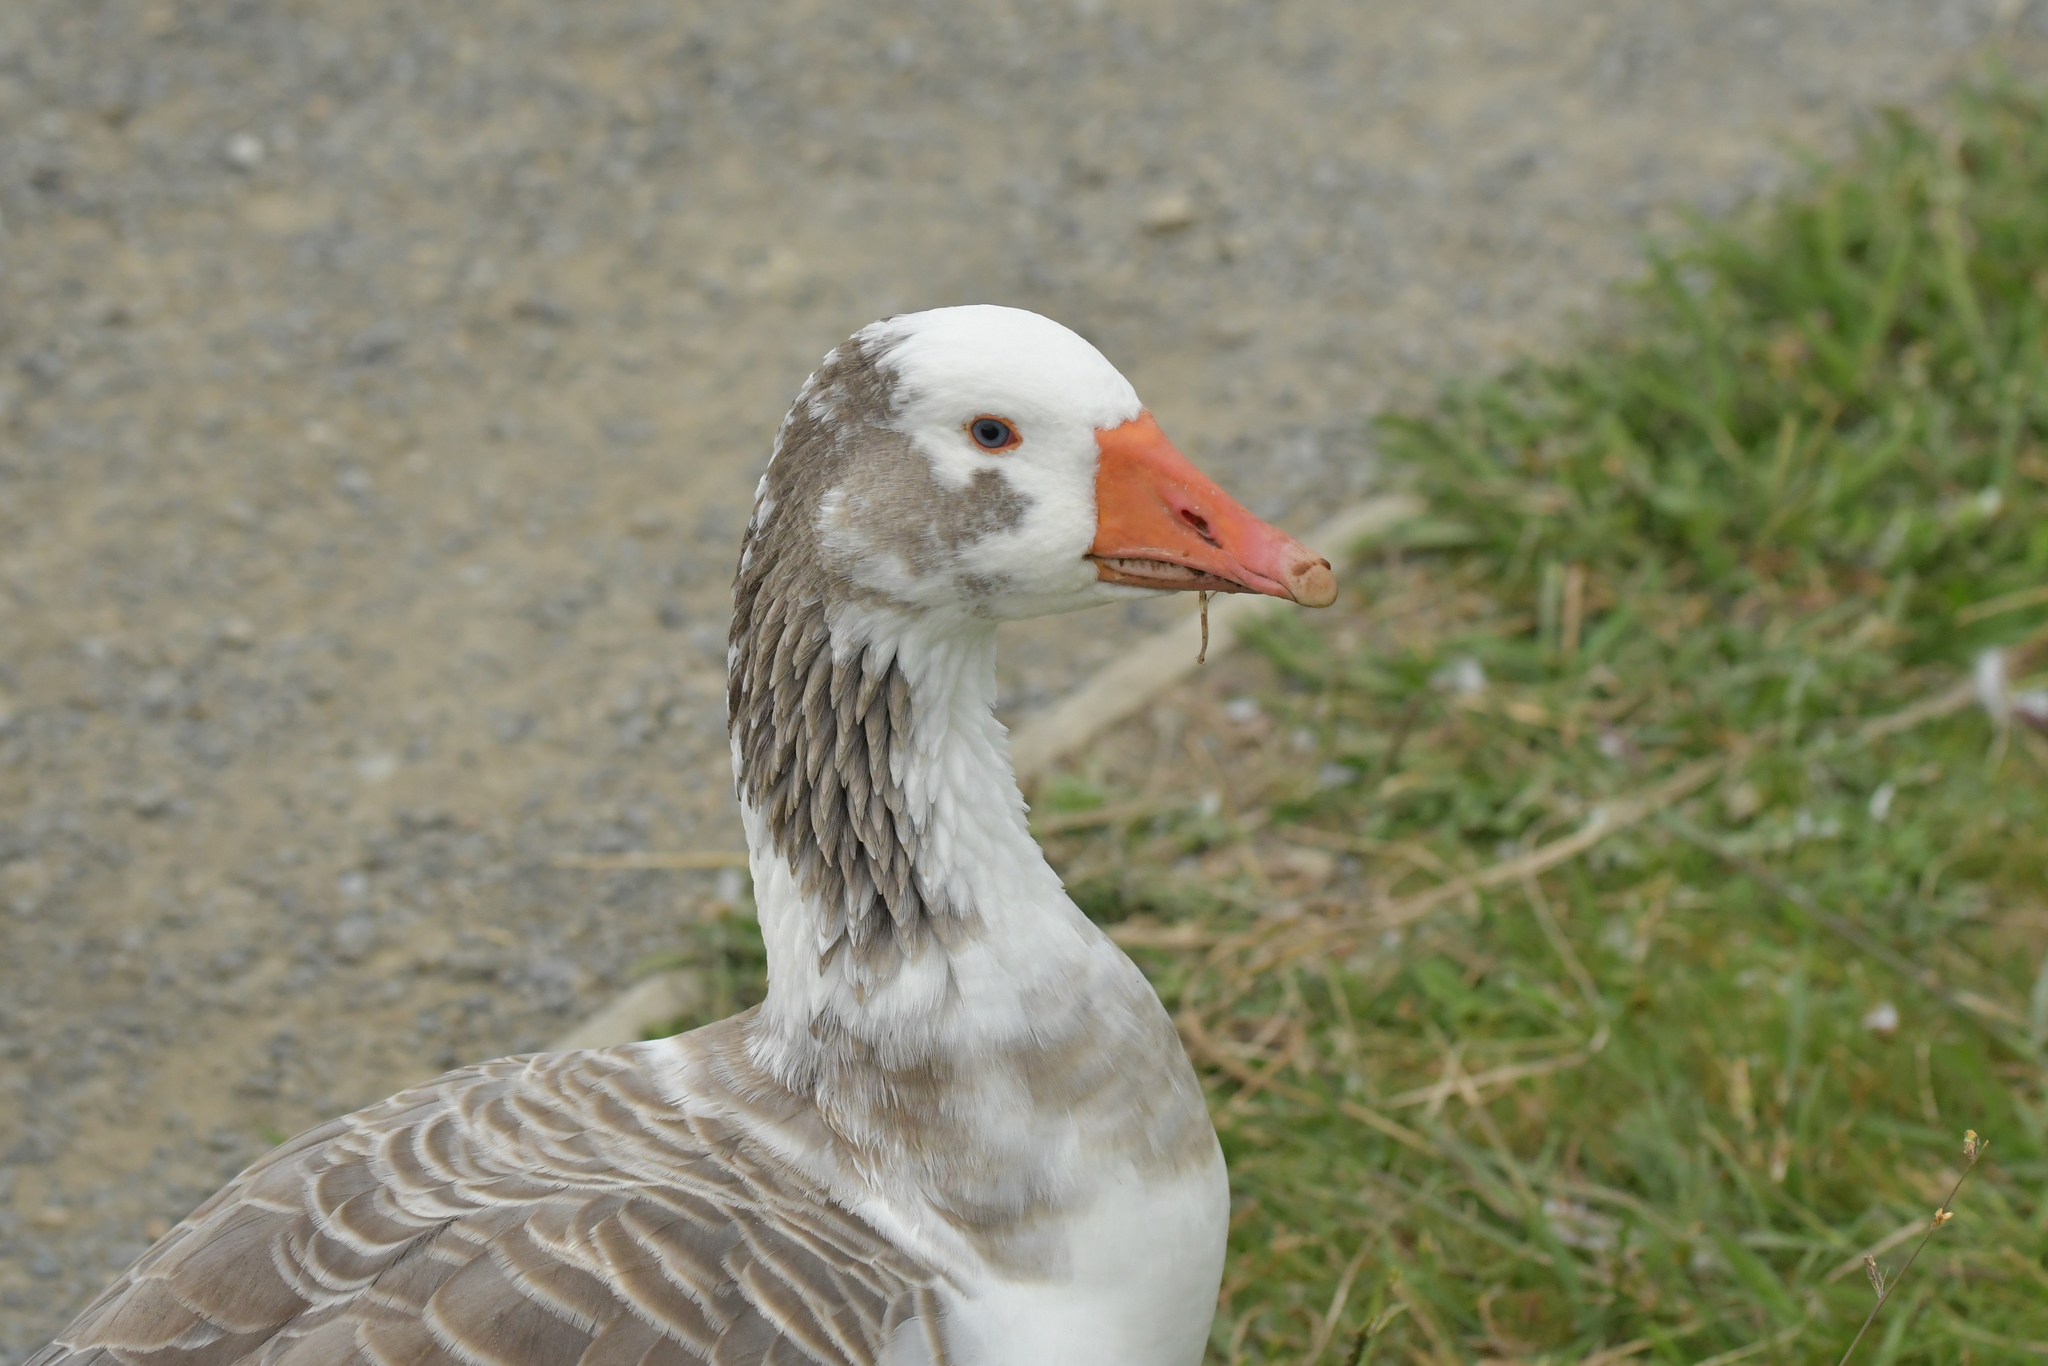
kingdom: Animalia
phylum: Chordata
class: Aves
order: Anseriformes
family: Anatidae
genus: Anser
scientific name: Anser anser
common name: Greylag goose
